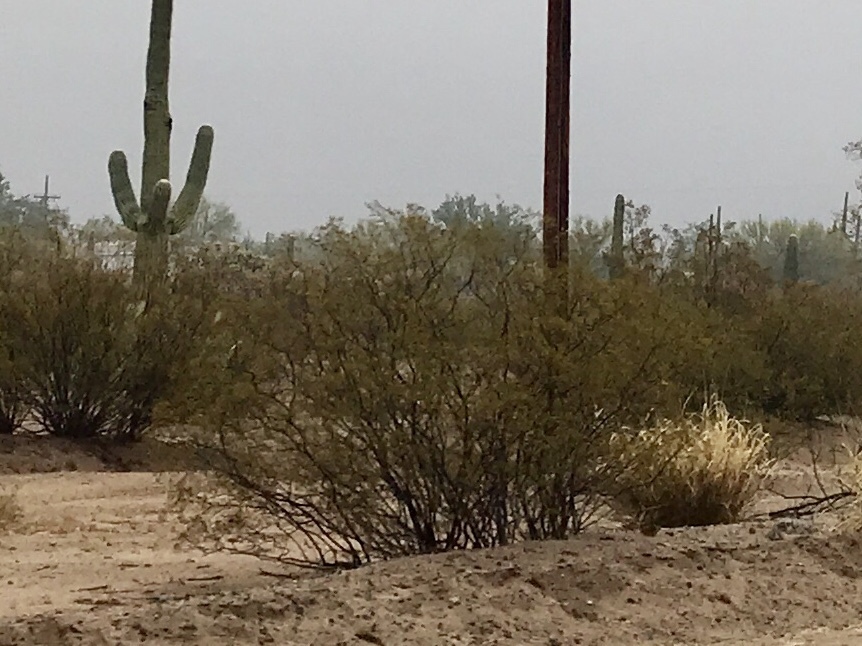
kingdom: Plantae
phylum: Tracheophyta
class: Magnoliopsida
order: Zygophyllales
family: Zygophyllaceae
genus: Larrea
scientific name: Larrea tridentata
